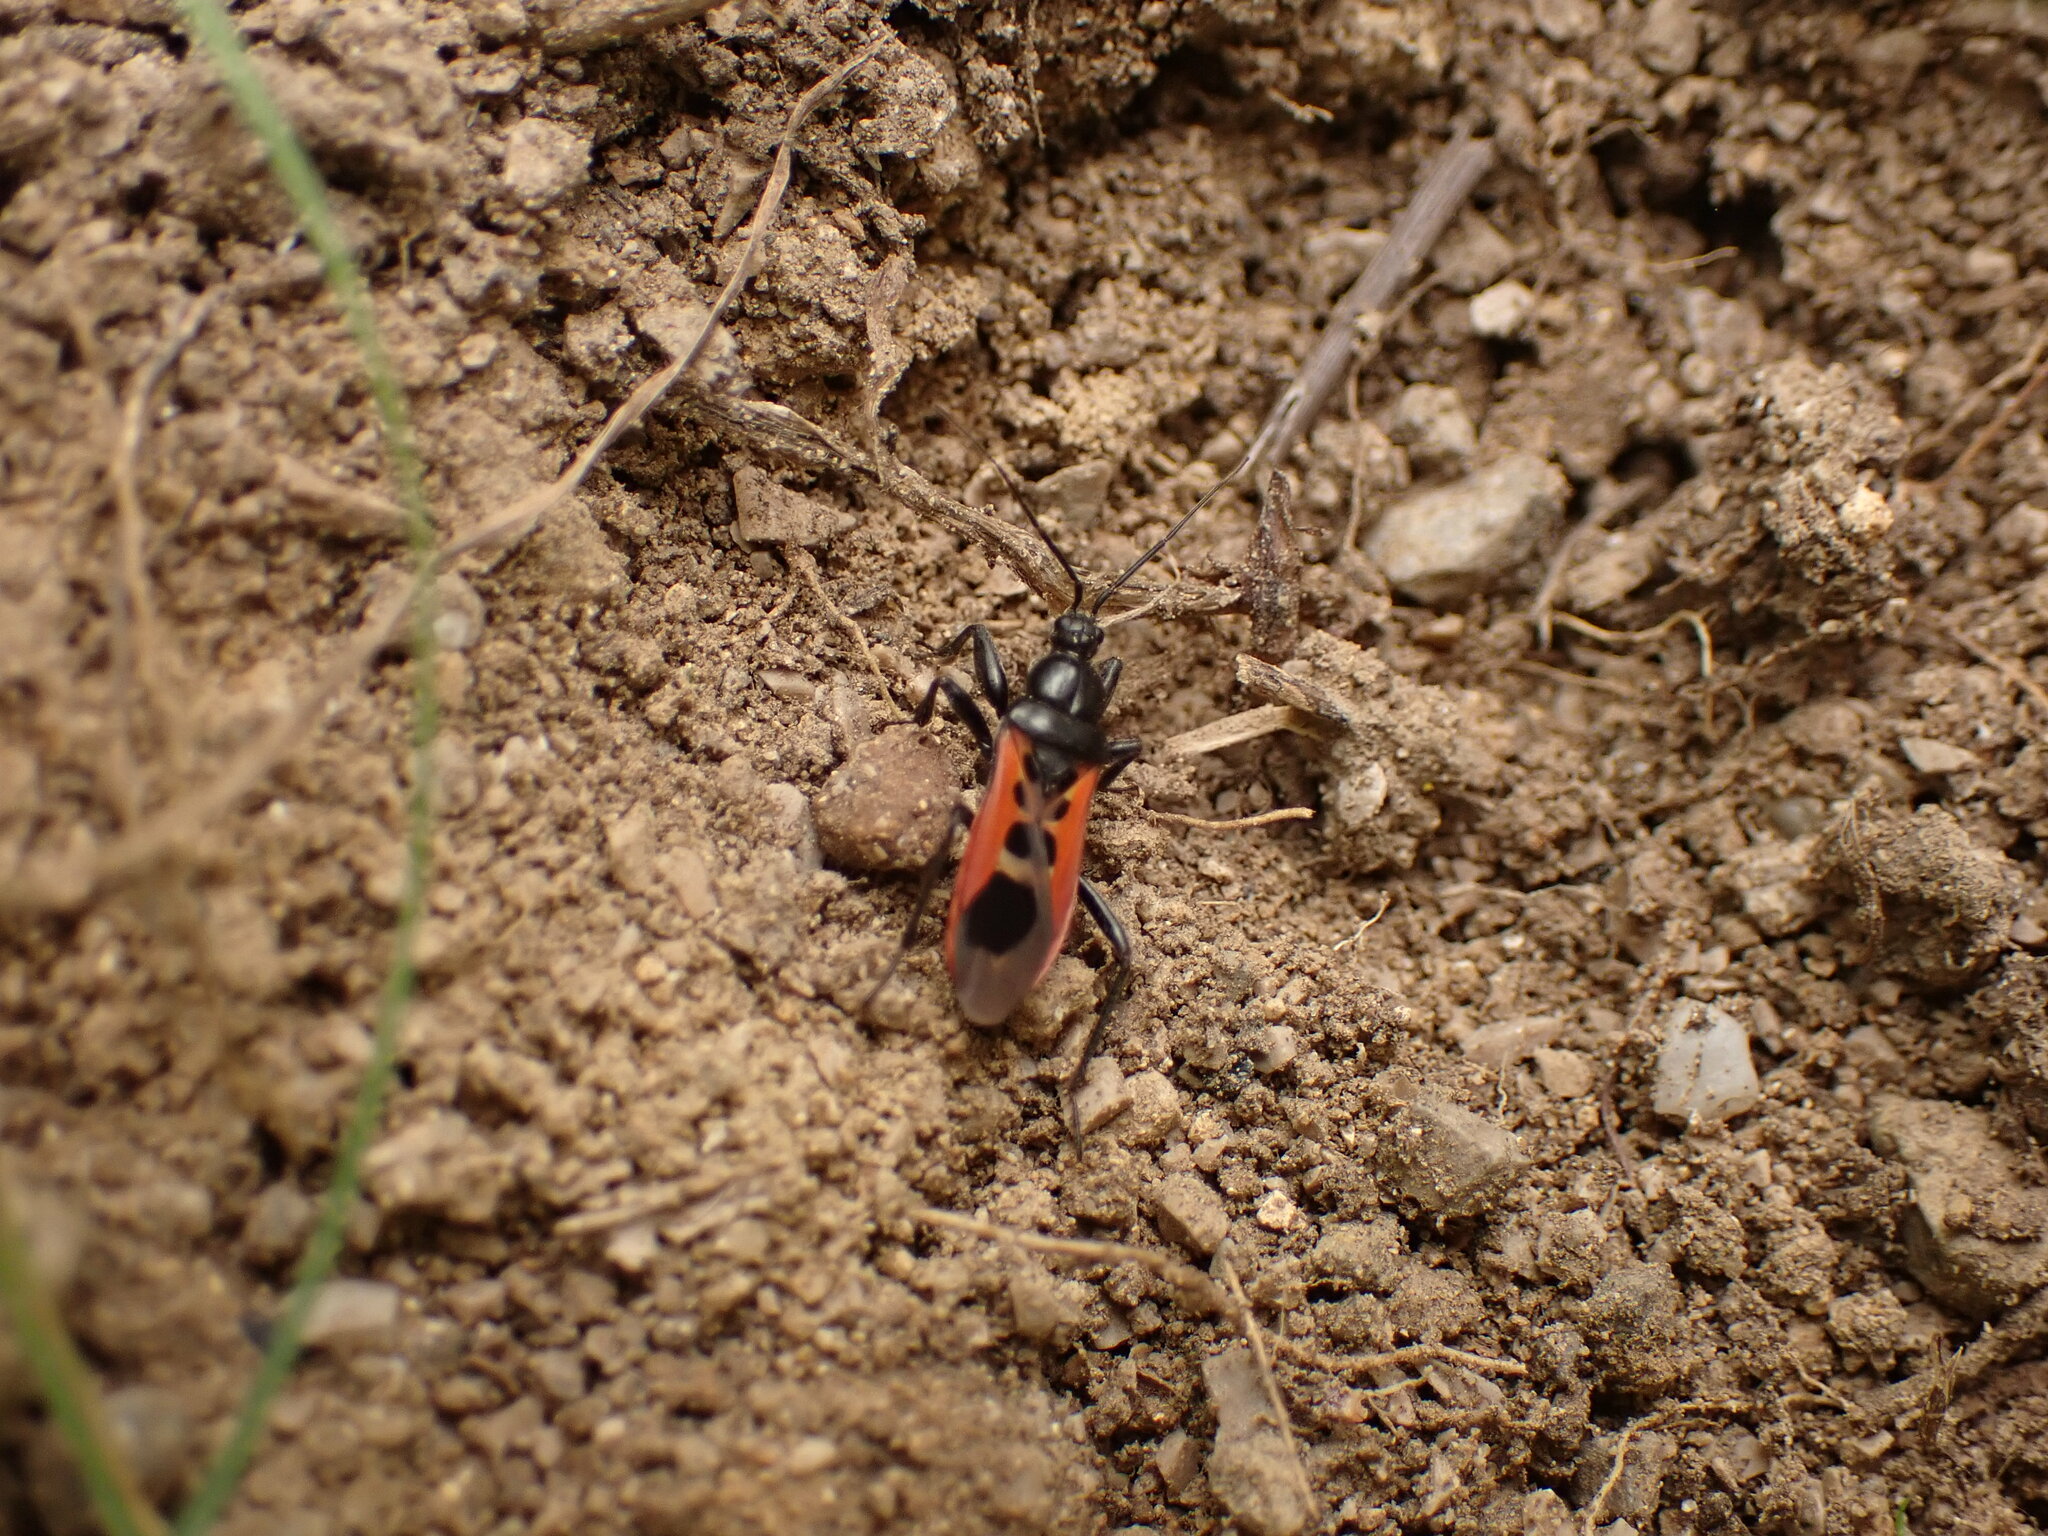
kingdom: Animalia
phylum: Arthropoda
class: Insecta
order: Hemiptera
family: Reduviidae
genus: Peirates
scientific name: Peirates stridulus
